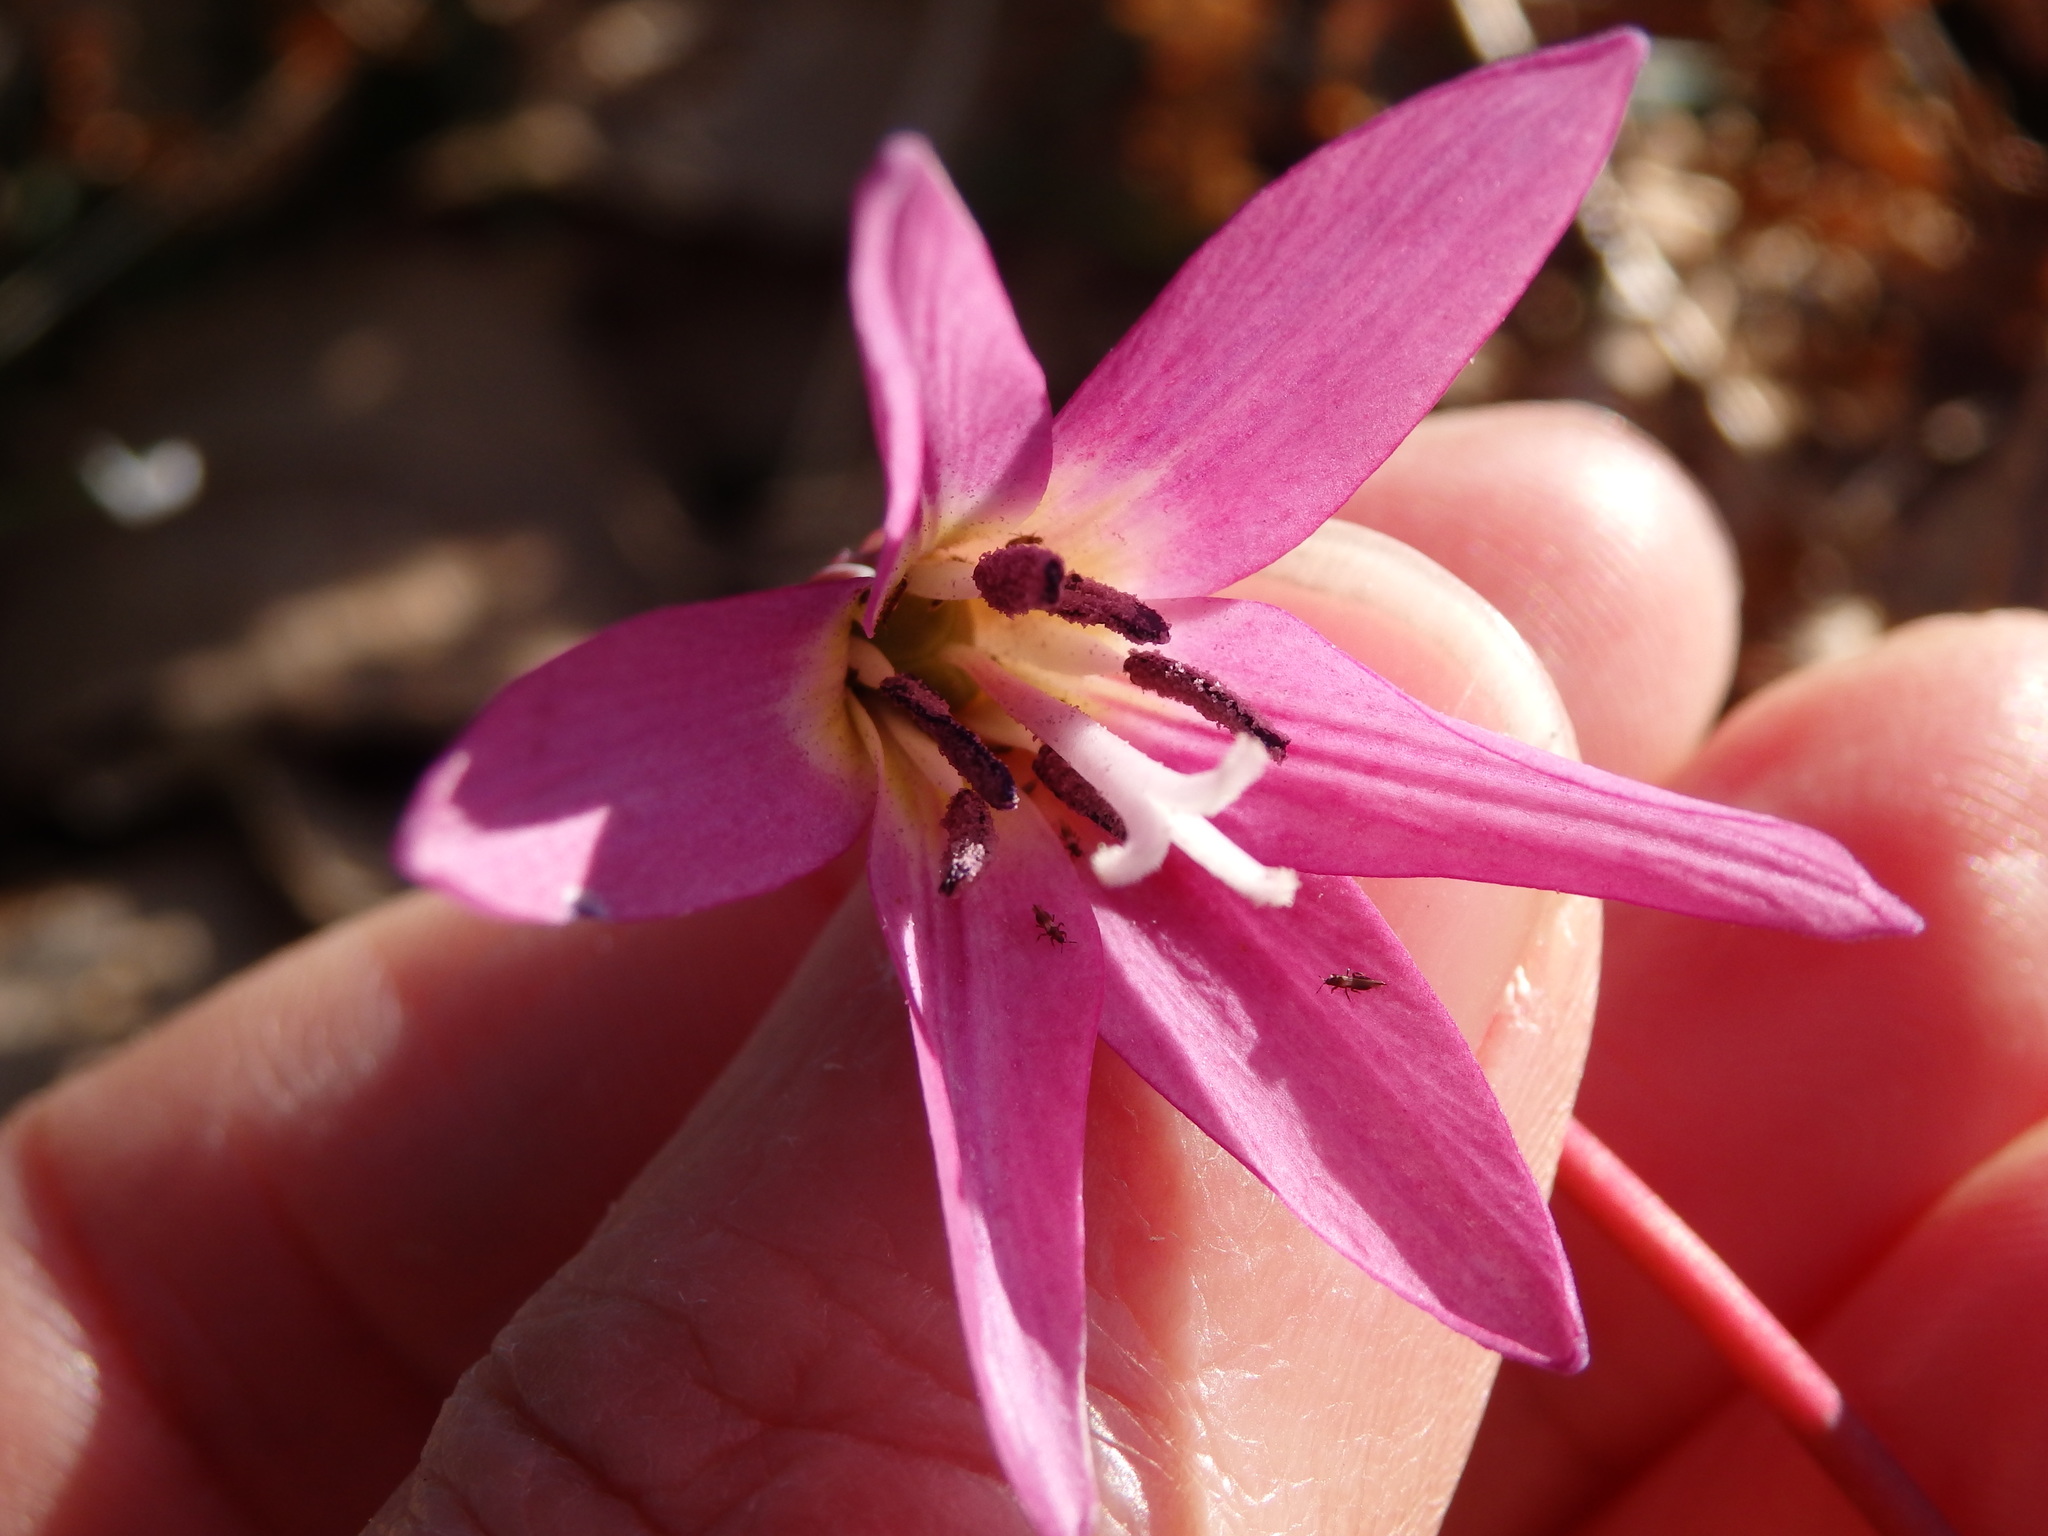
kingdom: Plantae
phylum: Tracheophyta
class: Liliopsida
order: Liliales
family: Liliaceae
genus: Erythronium
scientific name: Erythronium dens-canis
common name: Dog's-tooth-violet
